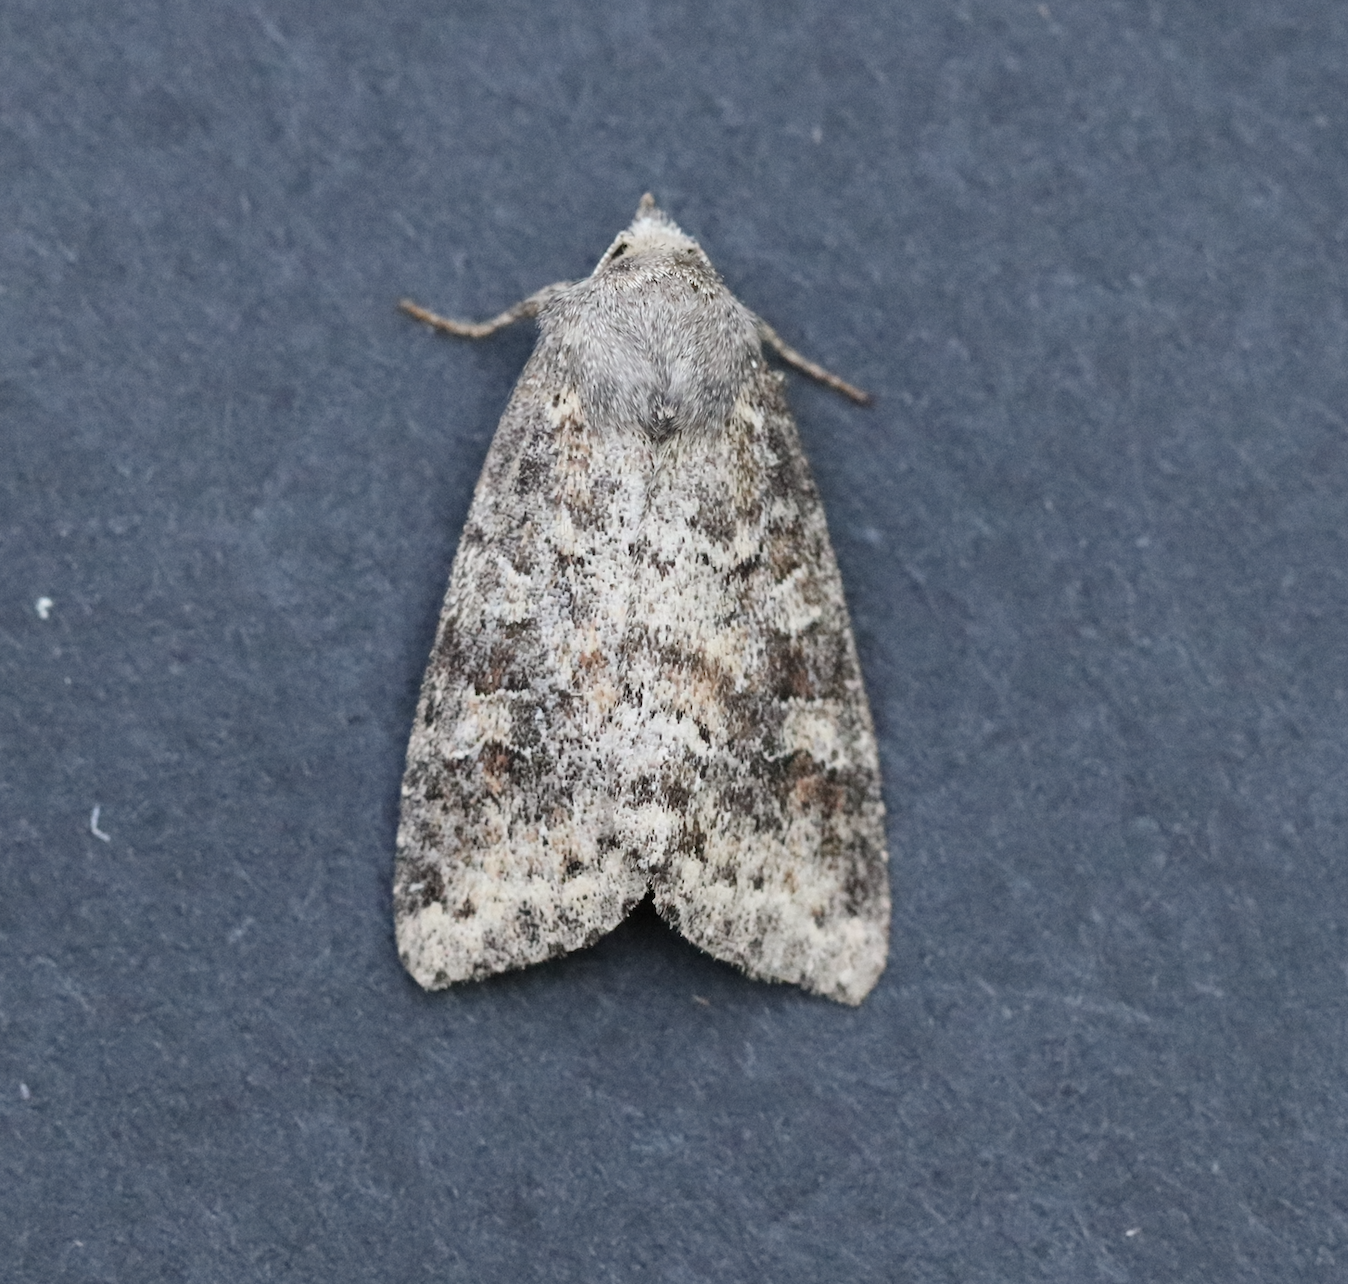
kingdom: Animalia
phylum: Arthropoda
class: Insecta
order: Lepidoptera
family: Noctuidae
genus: Parastichtis
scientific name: Parastichtis suspecta
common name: Suspected
